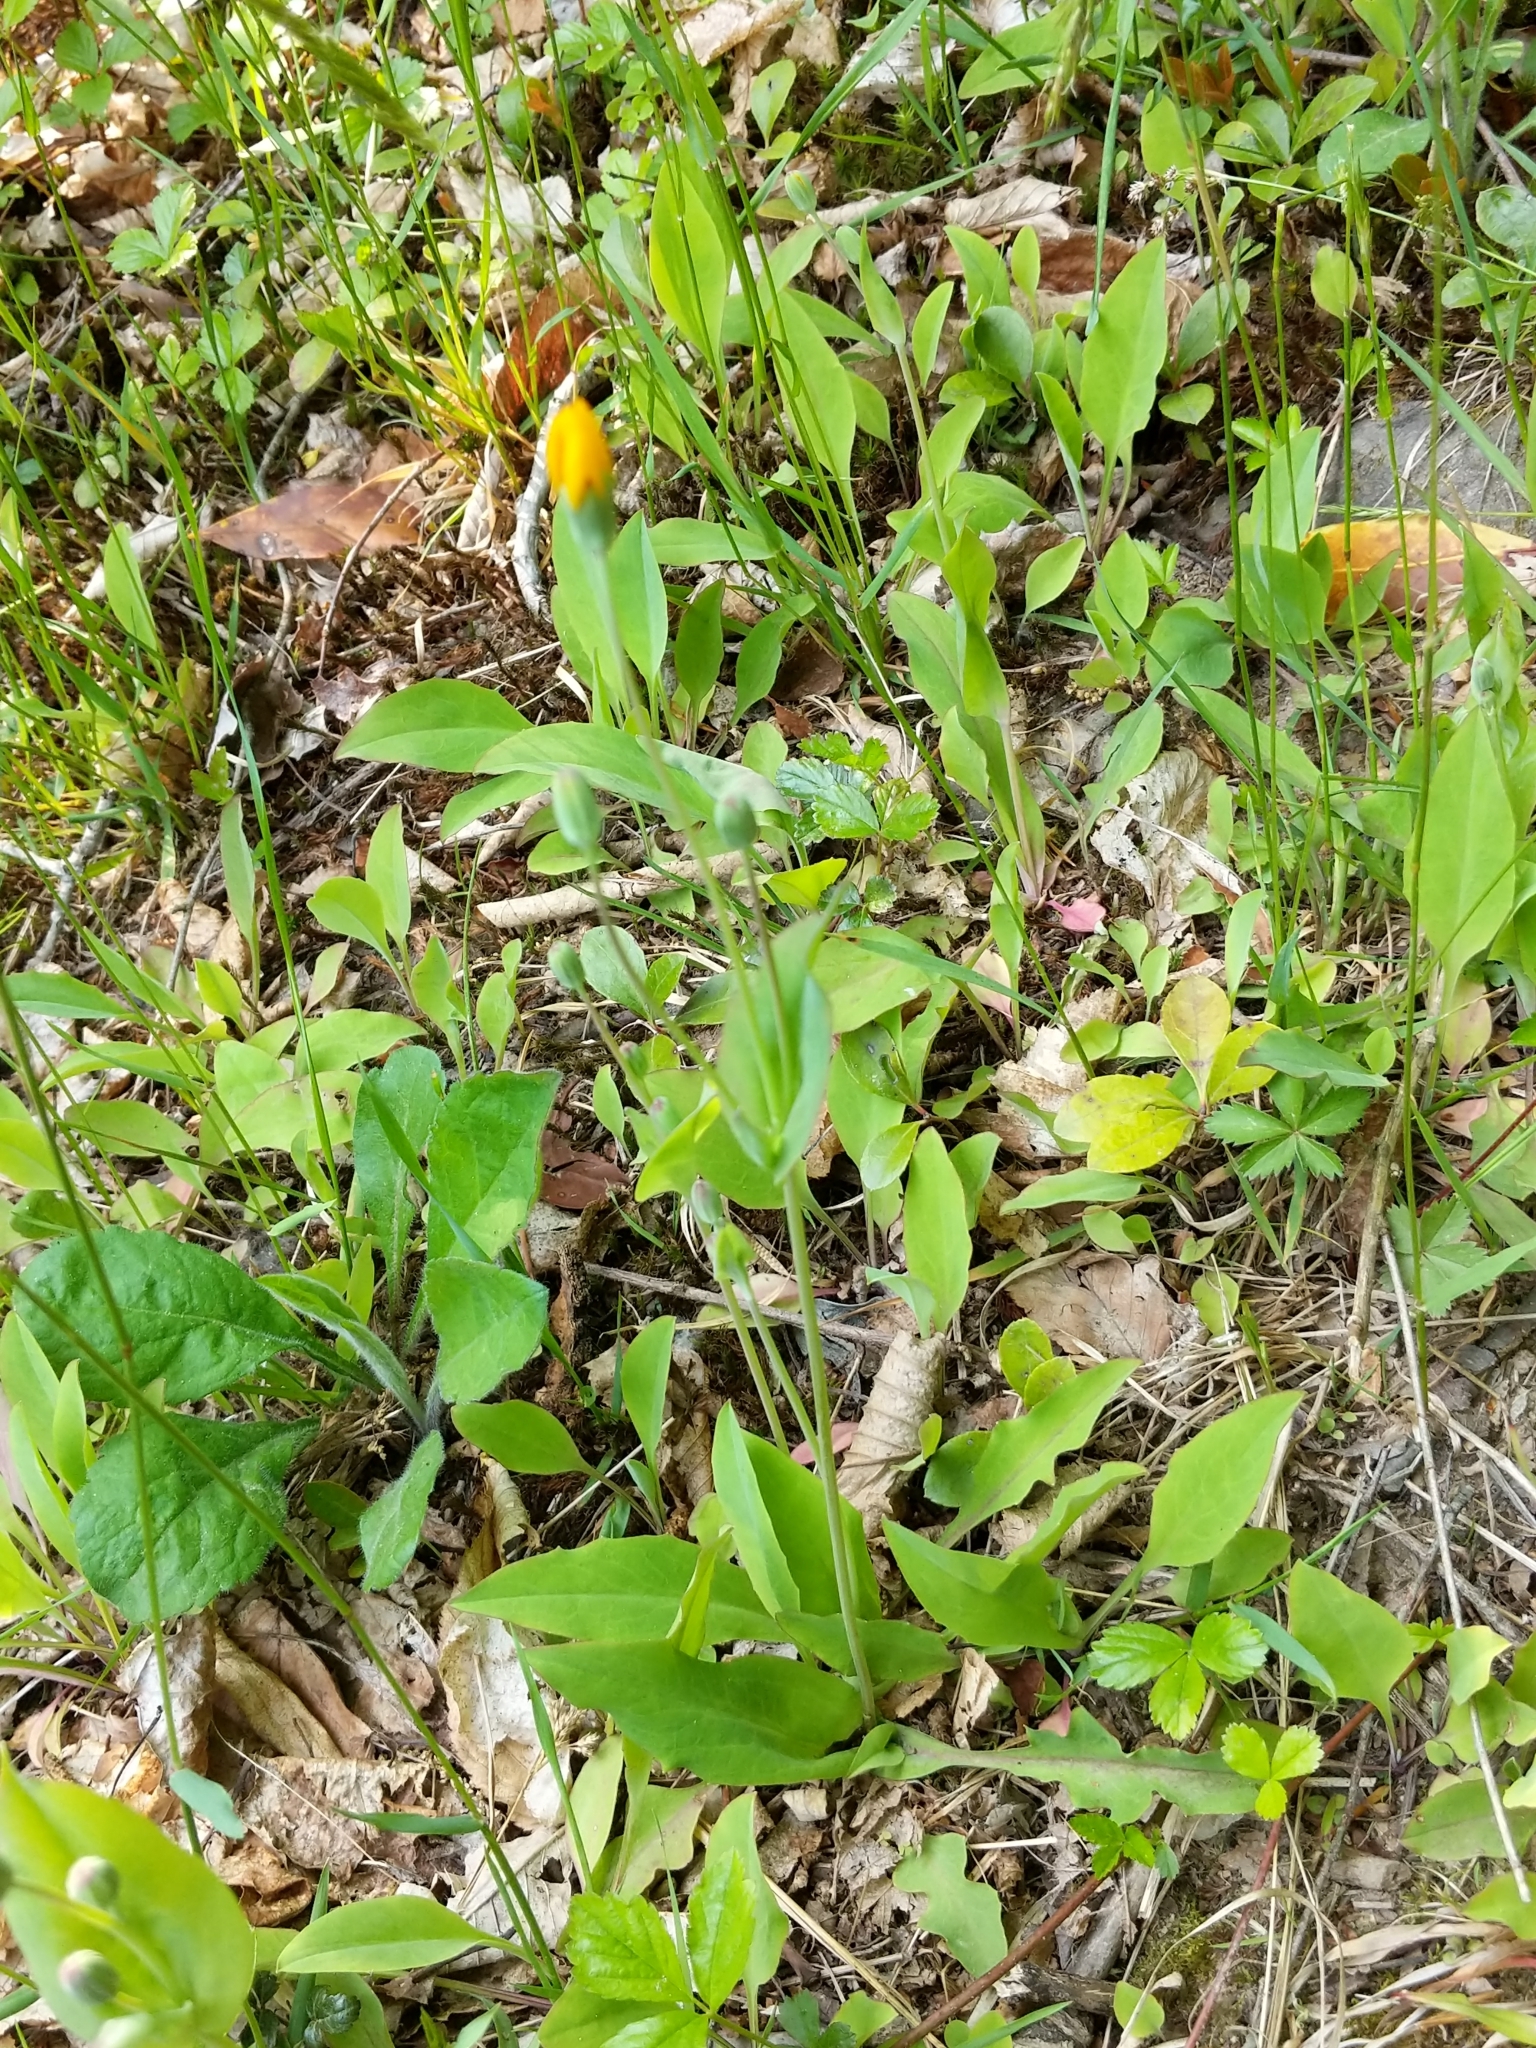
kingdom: Plantae
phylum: Tracheophyta
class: Magnoliopsida
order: Asterales
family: Asteraceae
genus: Krigia
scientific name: Krigia biflora
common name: Orange dwarf-dandelion
